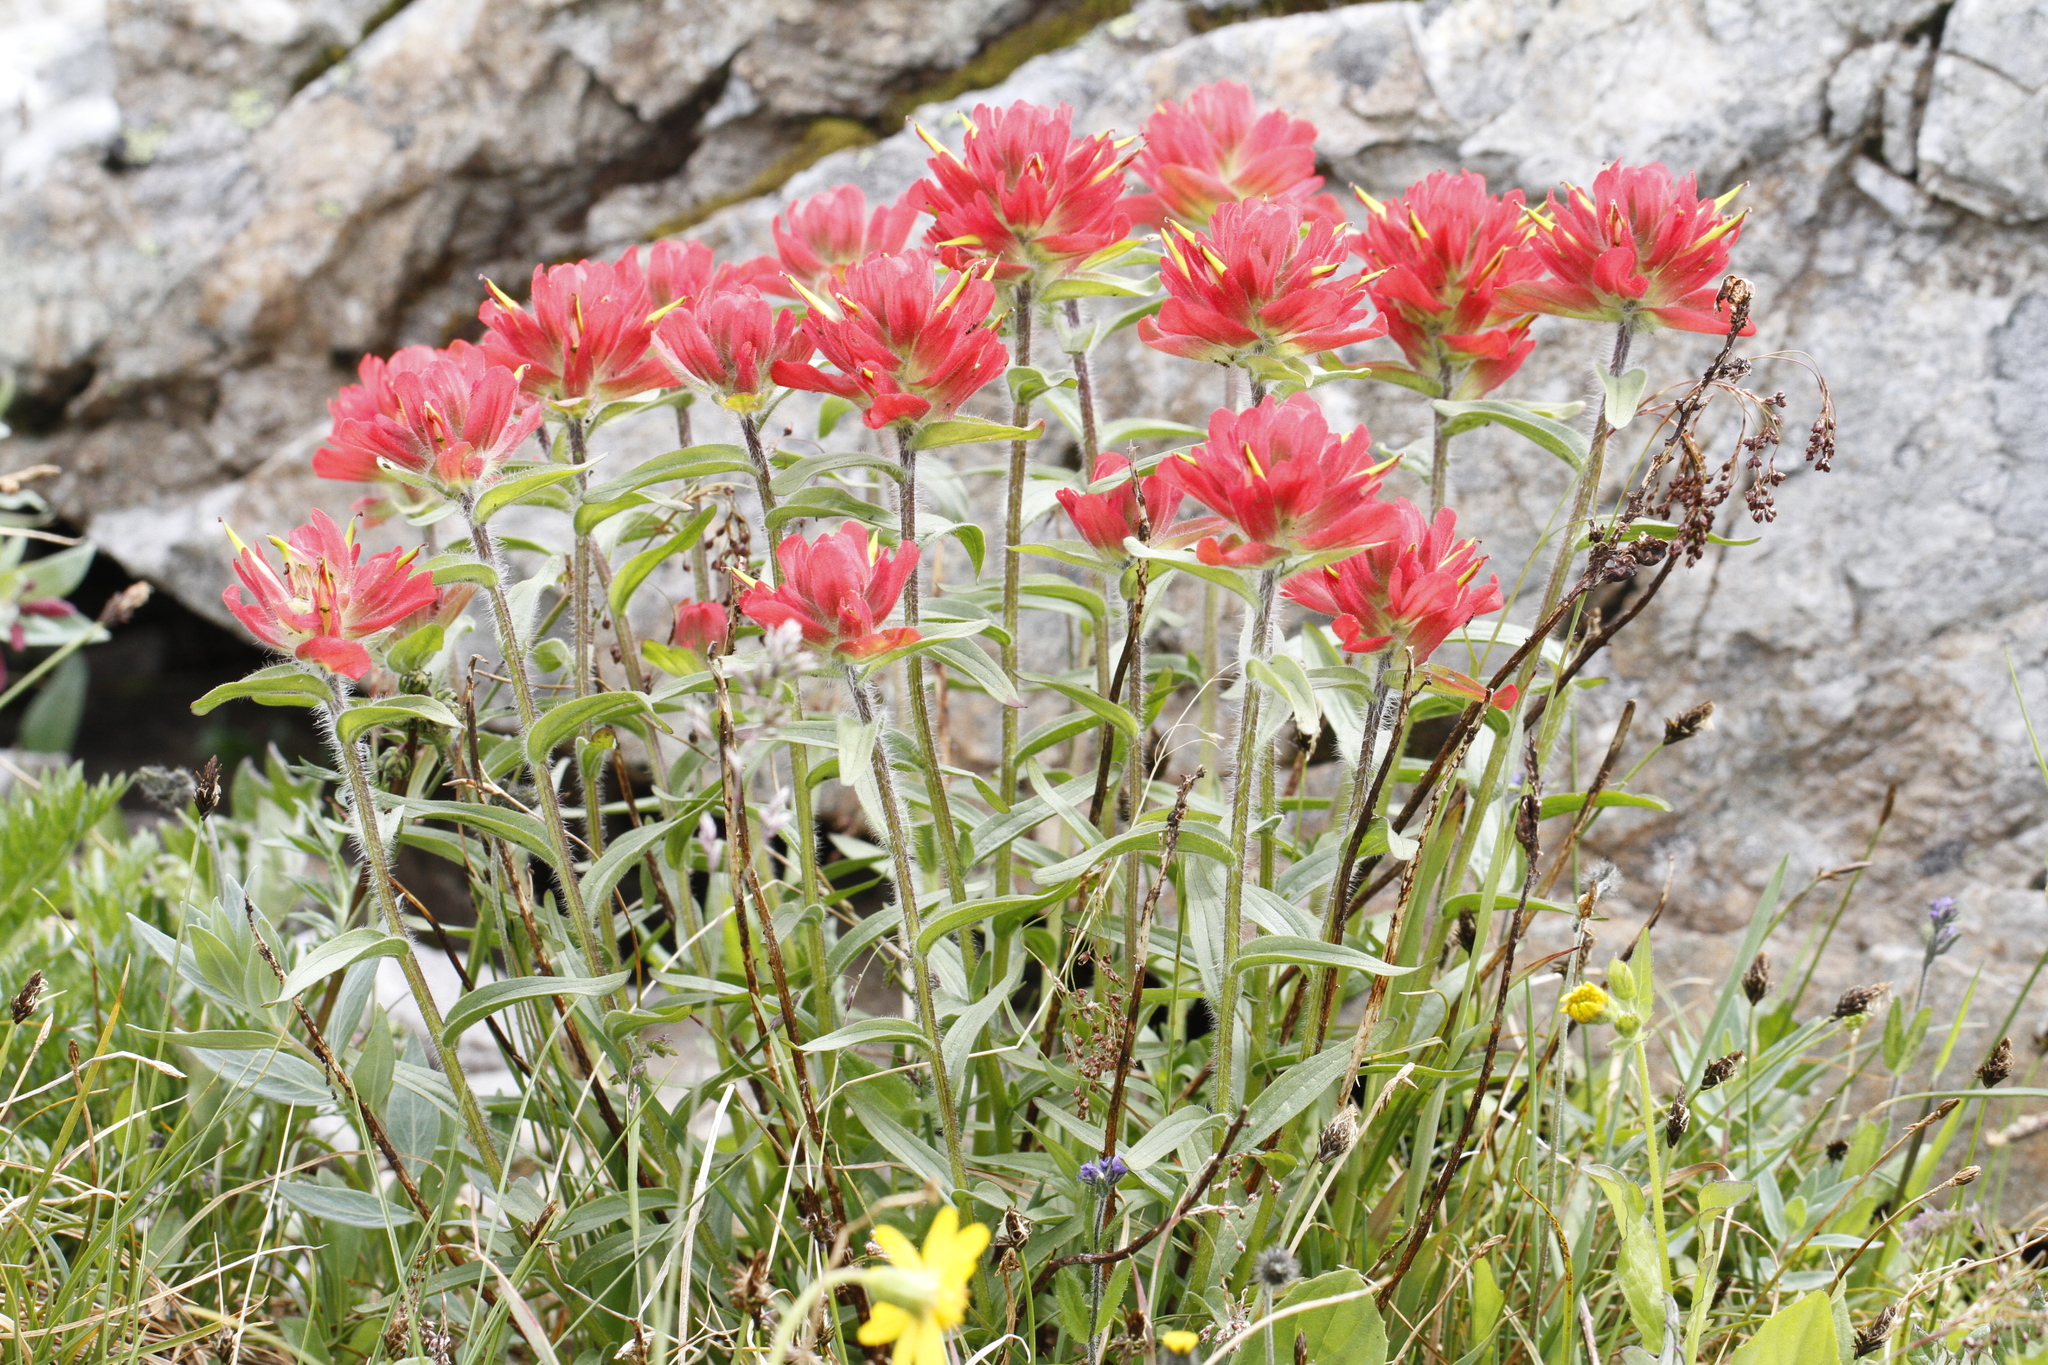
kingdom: Plantae
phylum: Tracheophyta
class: Magnoliopsida
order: Lamiales
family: Orobanchaceae
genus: Castilleja
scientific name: Castilleja miniata
